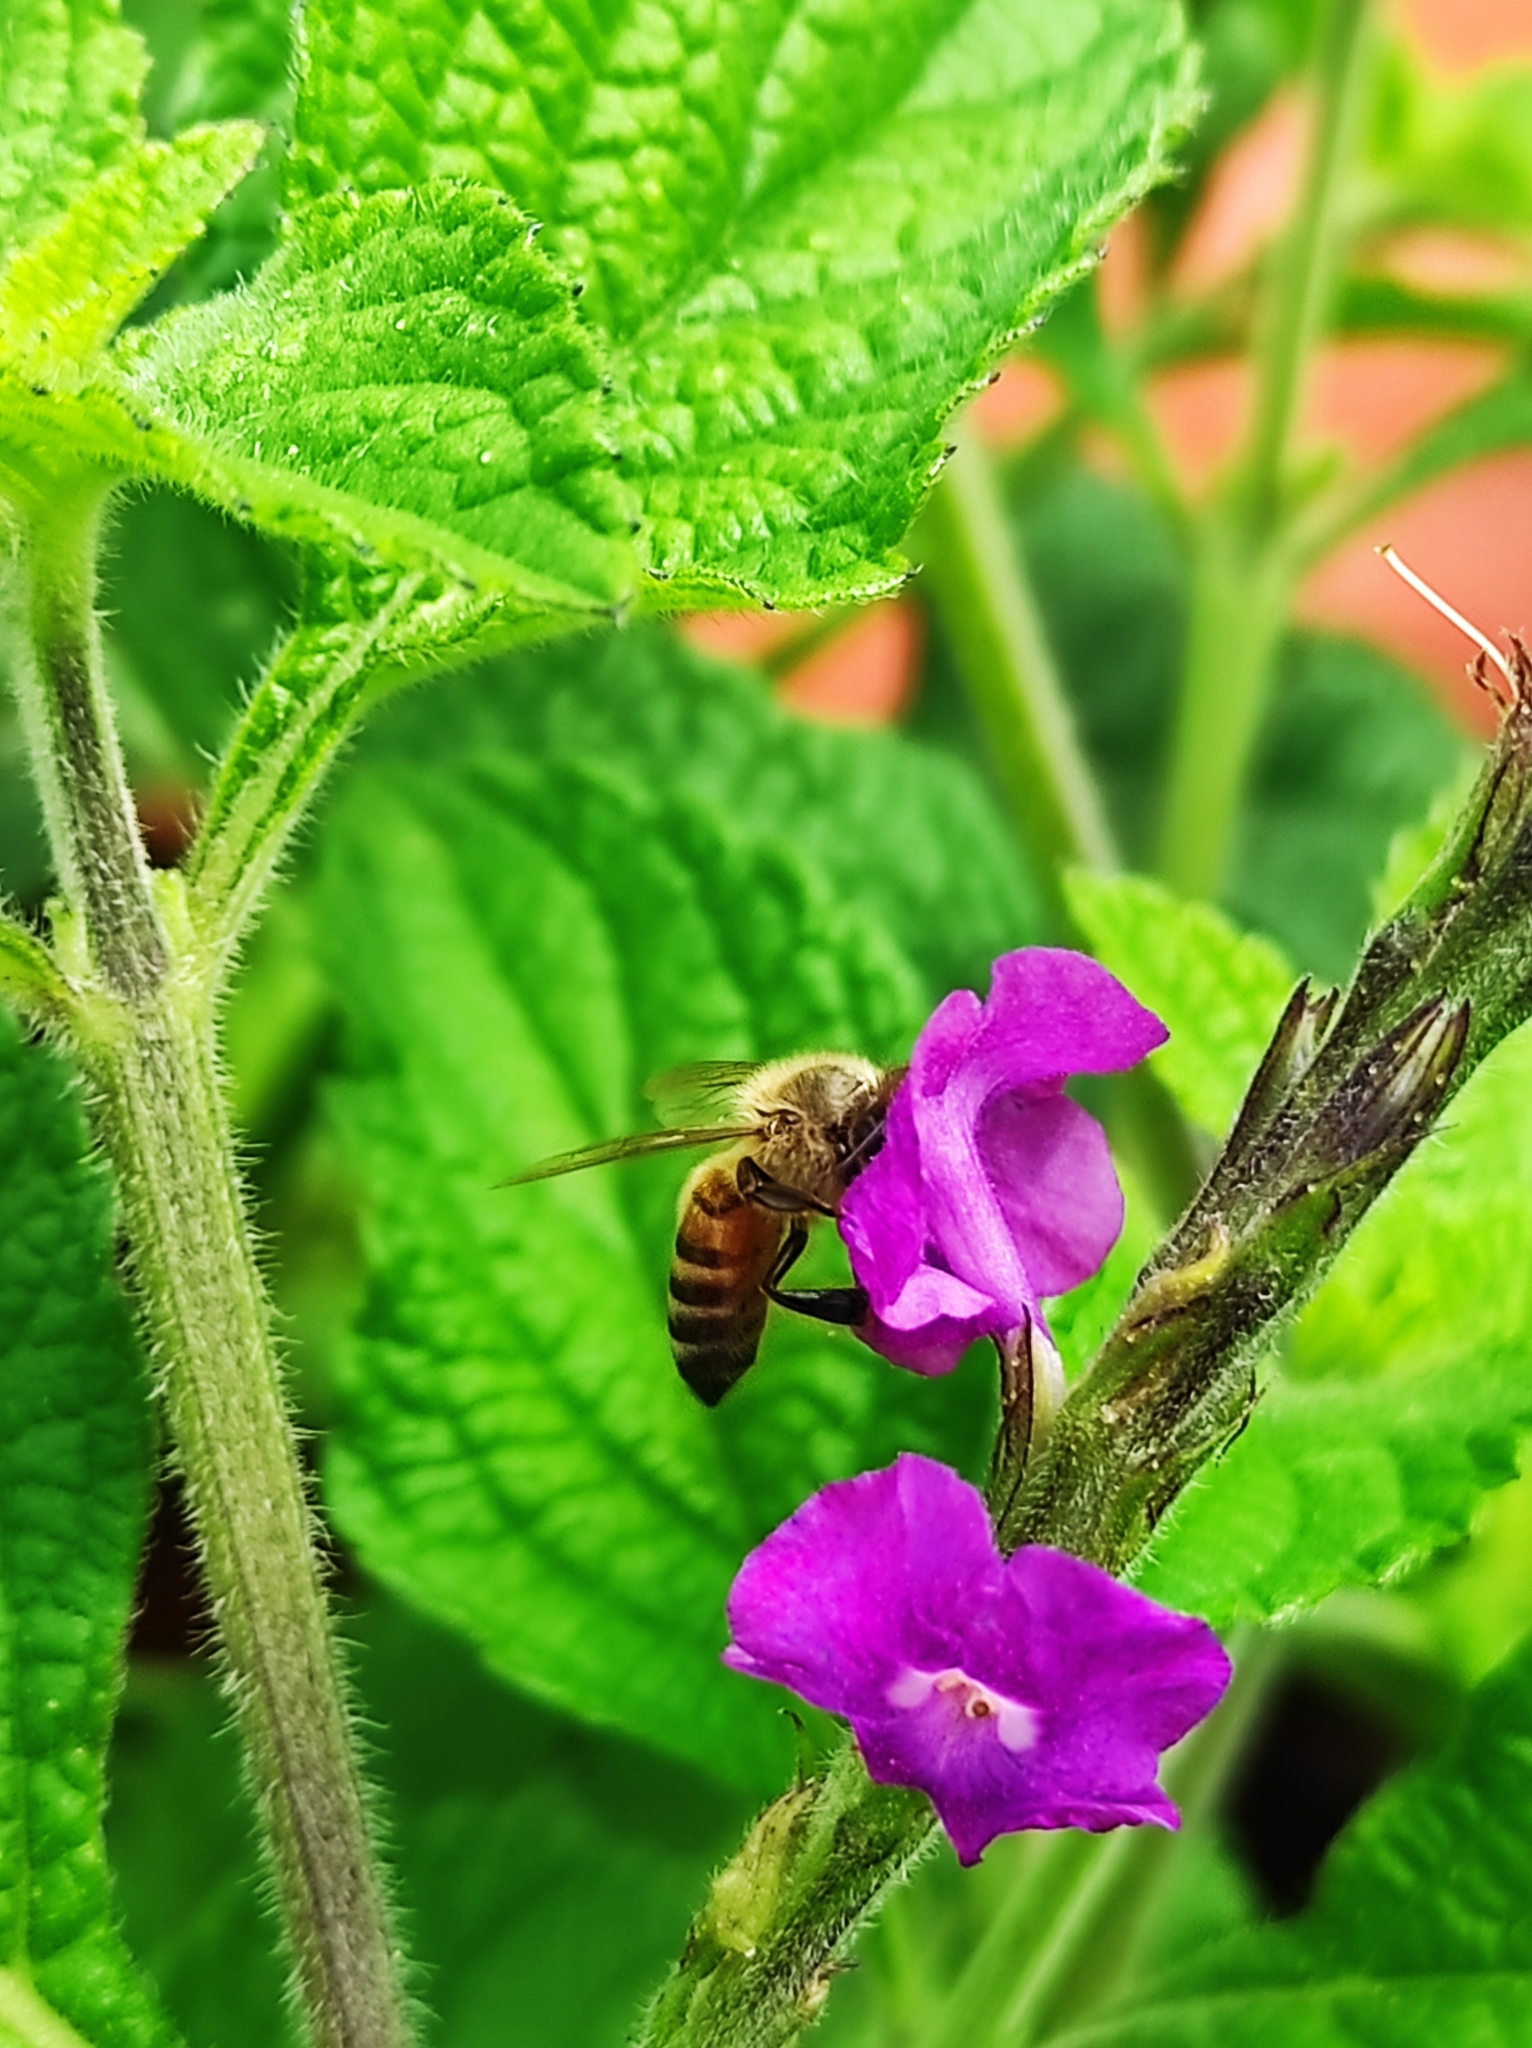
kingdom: Animalia
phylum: Arthropoda
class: Insecta
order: Hymenoptera
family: Apidae
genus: Apis
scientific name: Apis mellifera
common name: Honey bee
